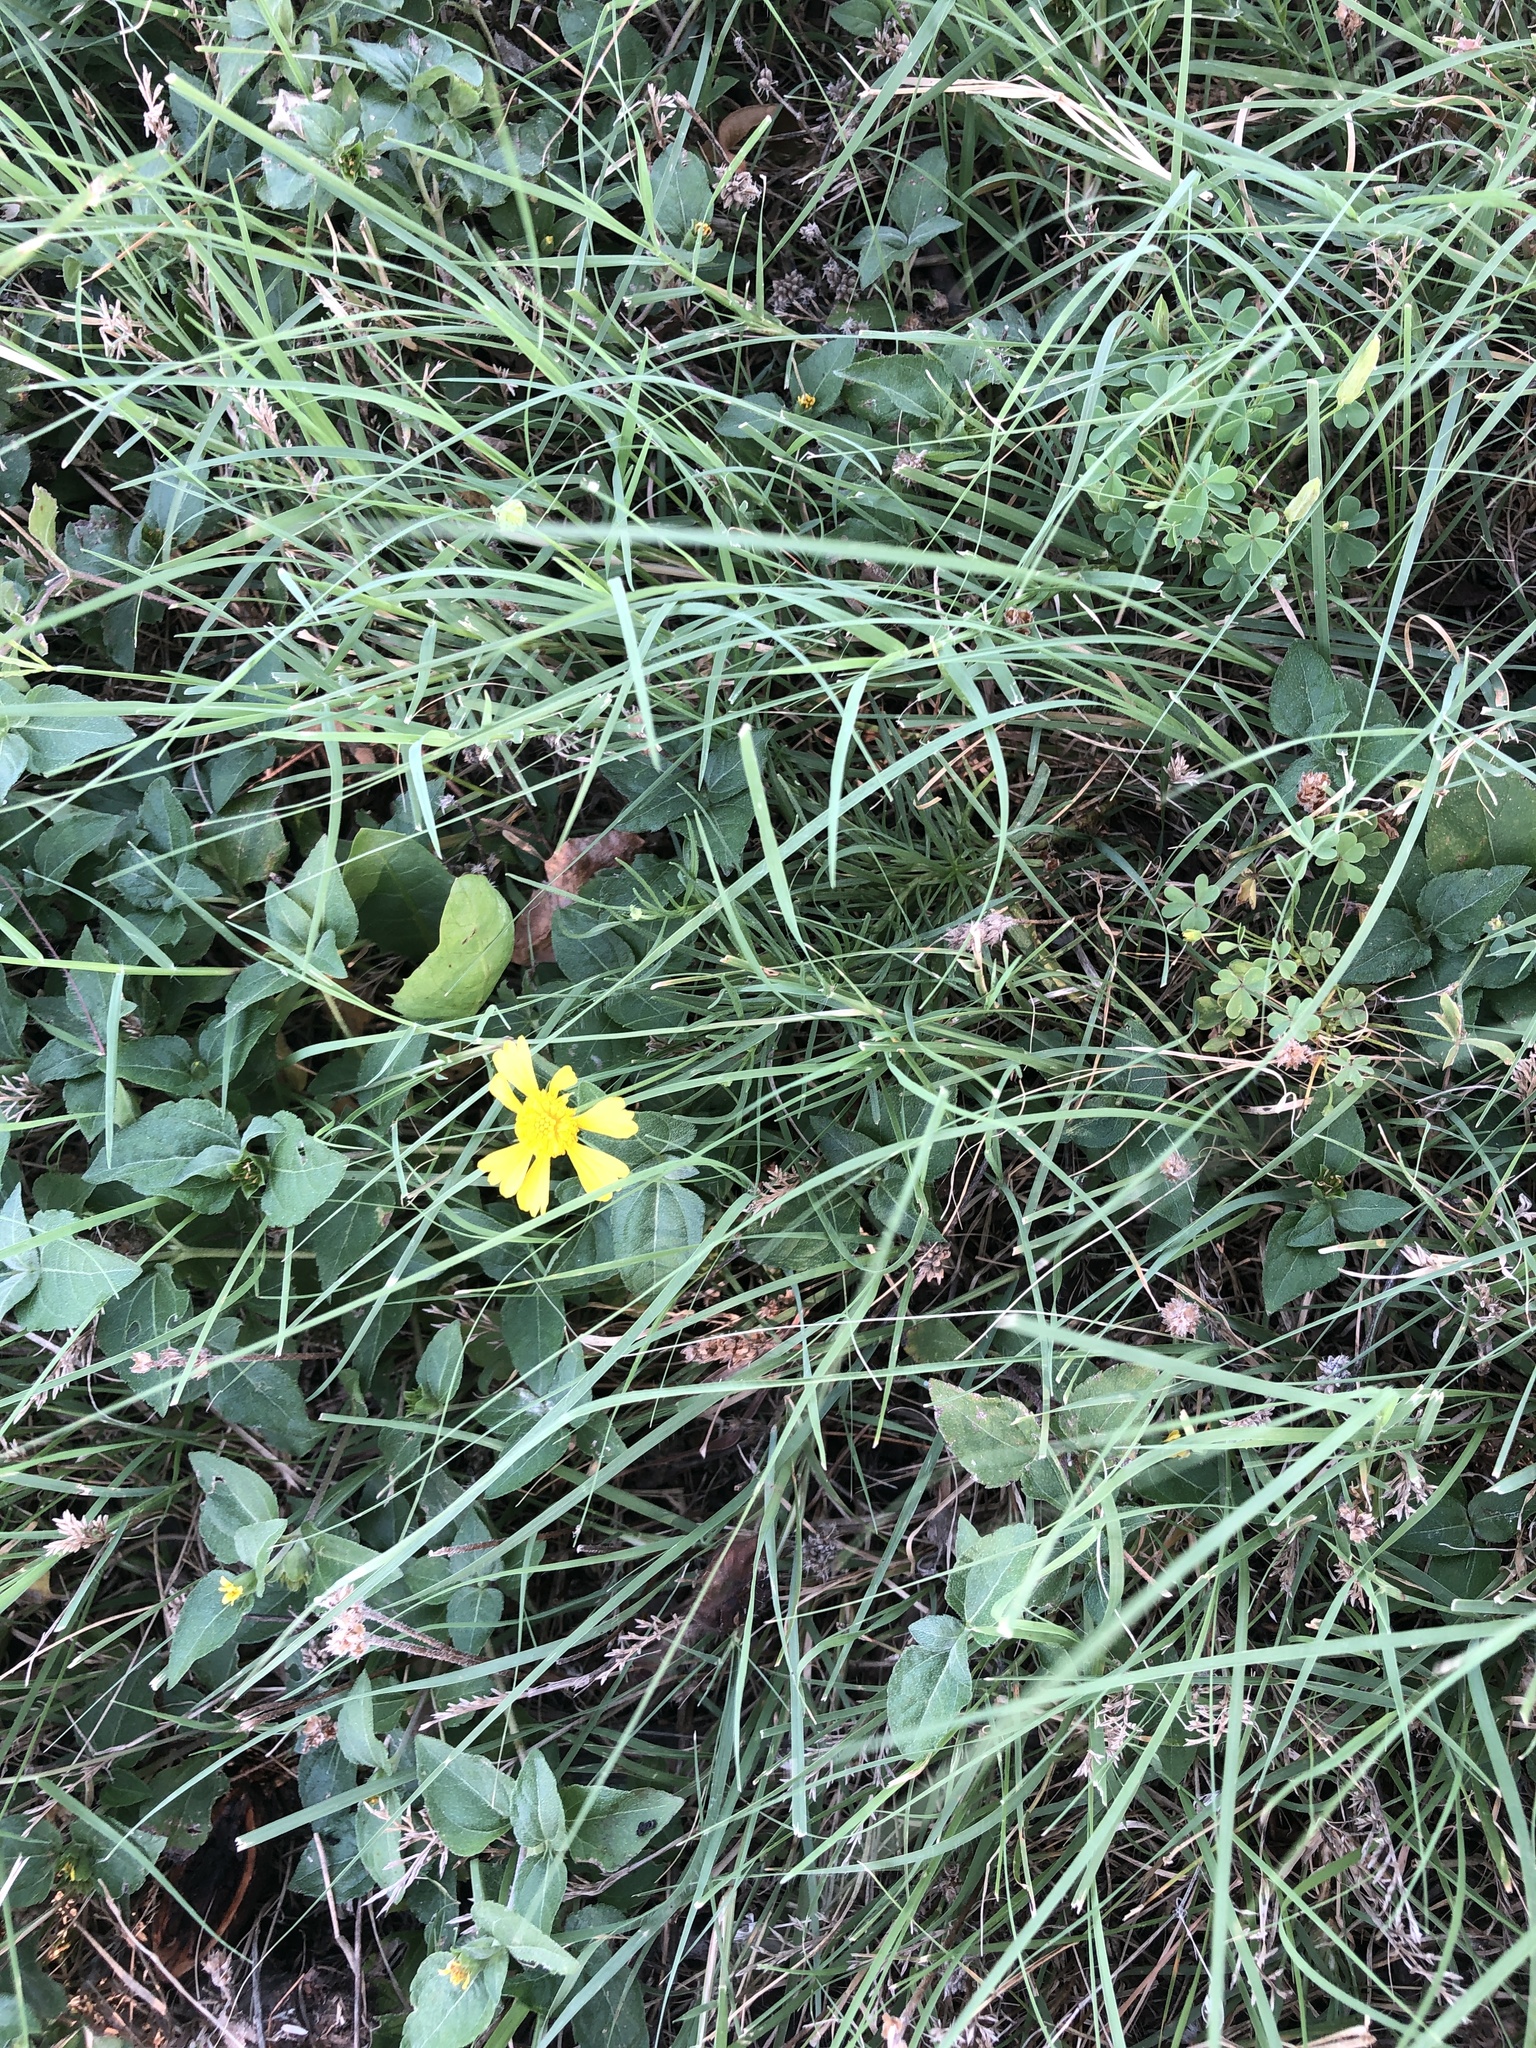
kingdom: Plantae
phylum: Tracheophyta
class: Magnoliopsida
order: Asterales
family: Asteraceae
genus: Helenium
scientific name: Helenium amarum
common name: Bitter sneezeweed
